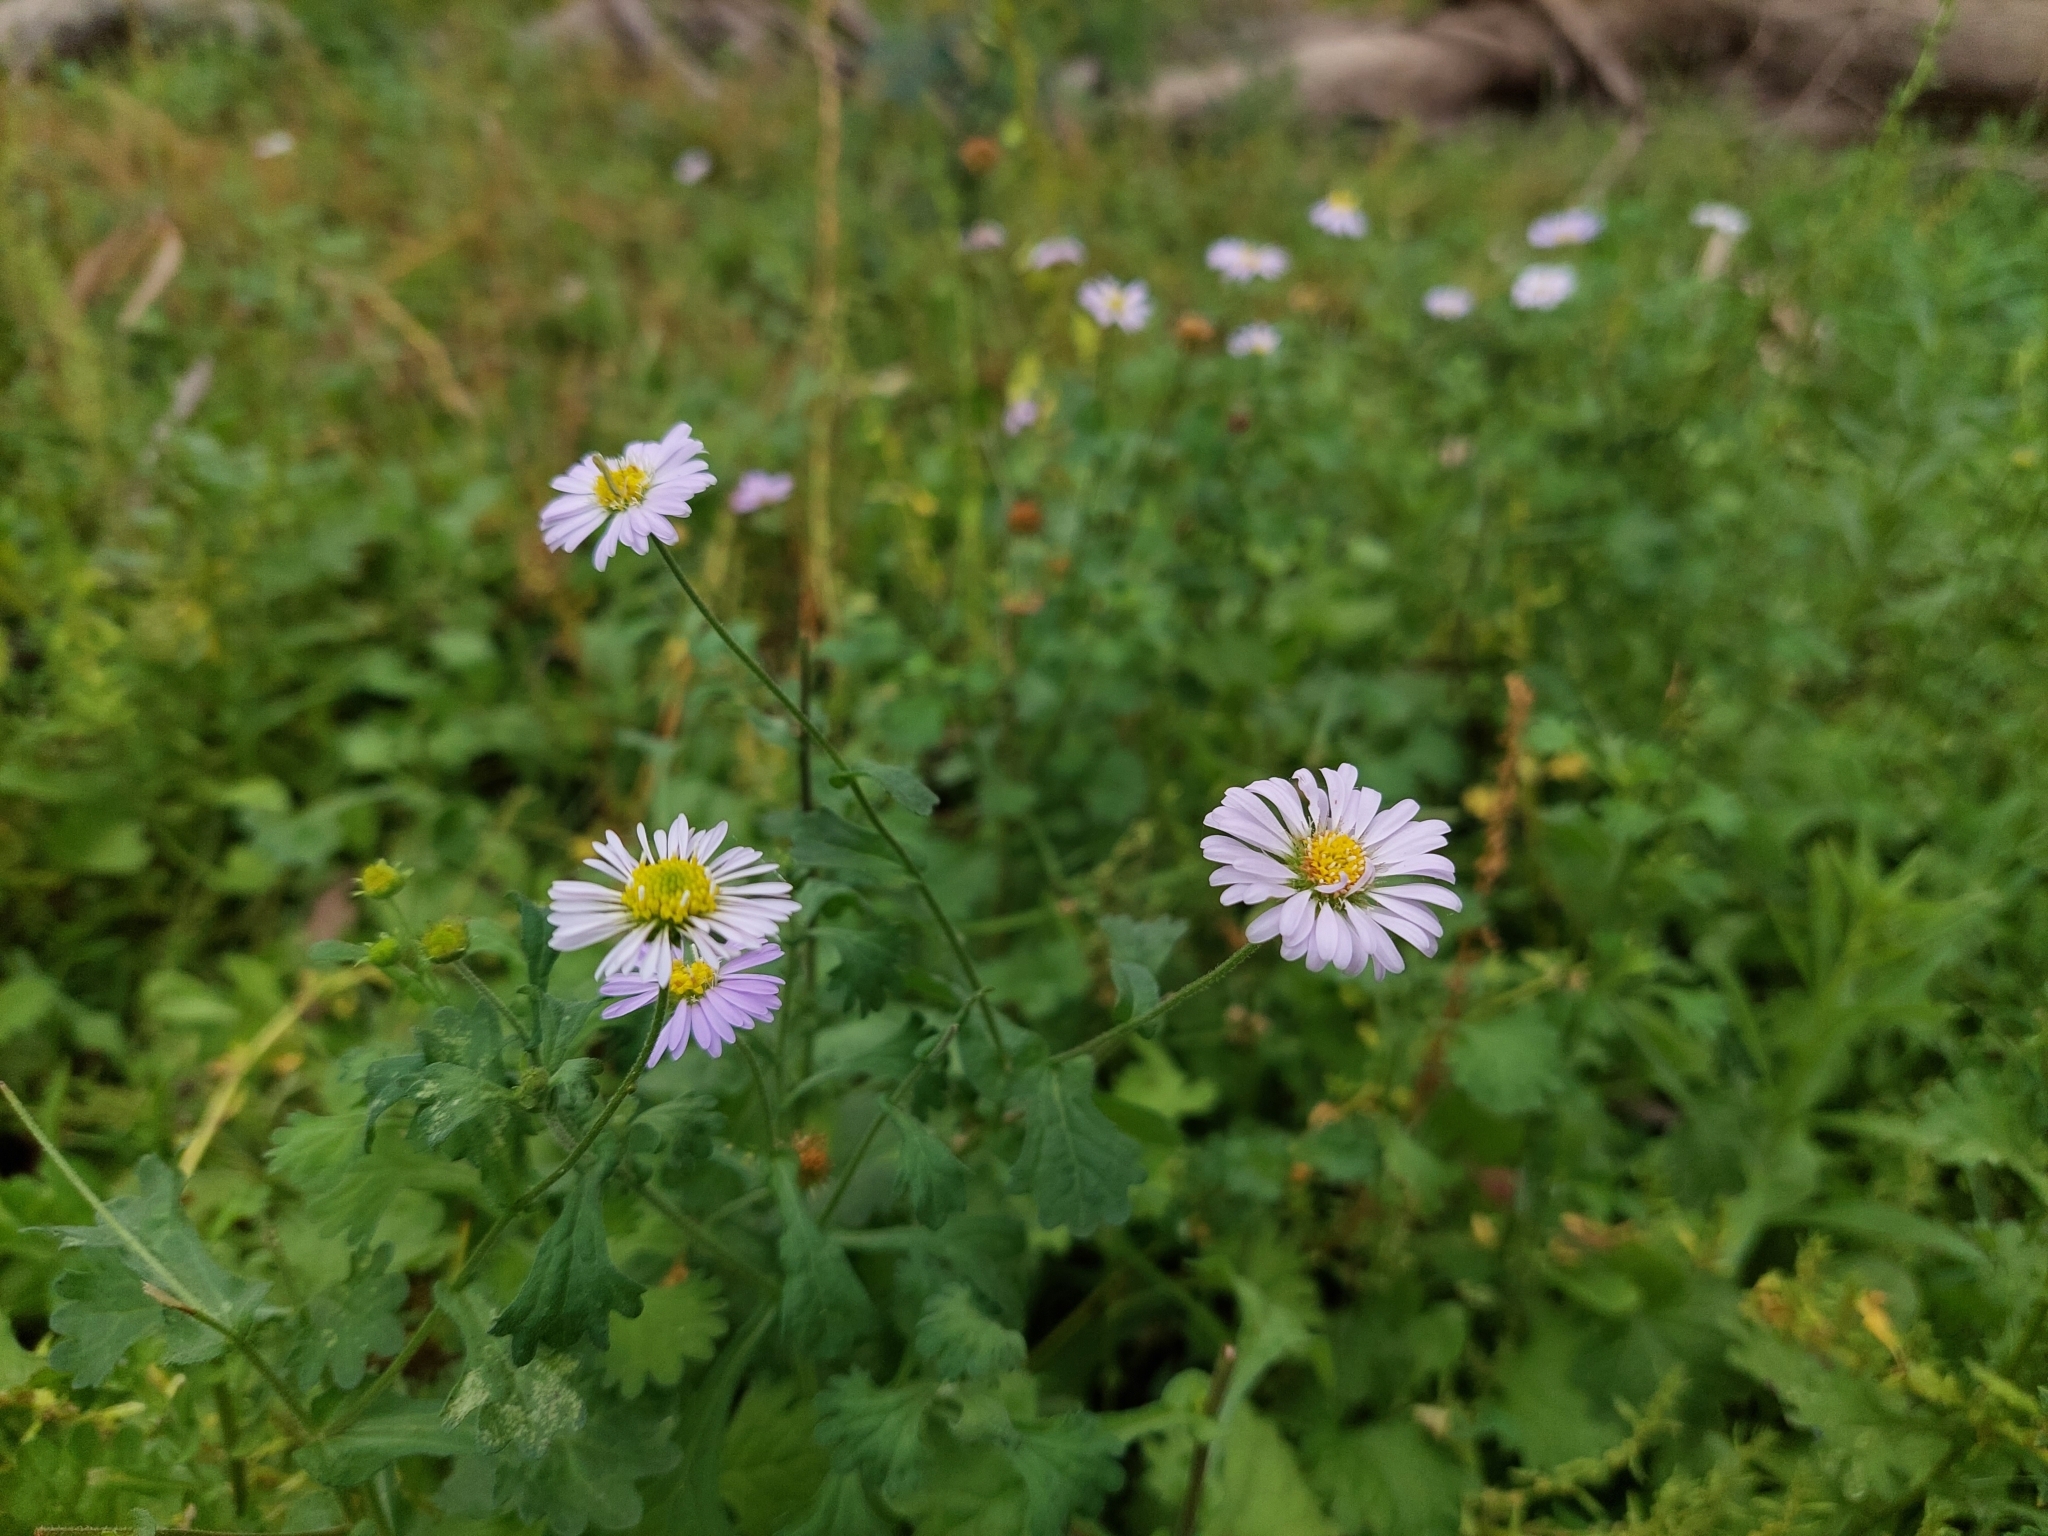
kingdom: Plantae
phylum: Tracheophyta
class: Magnoliopsida
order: Asterales
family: Asteraceae
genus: Calotis
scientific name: Calotis cuneifolia
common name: Bur-daisy
